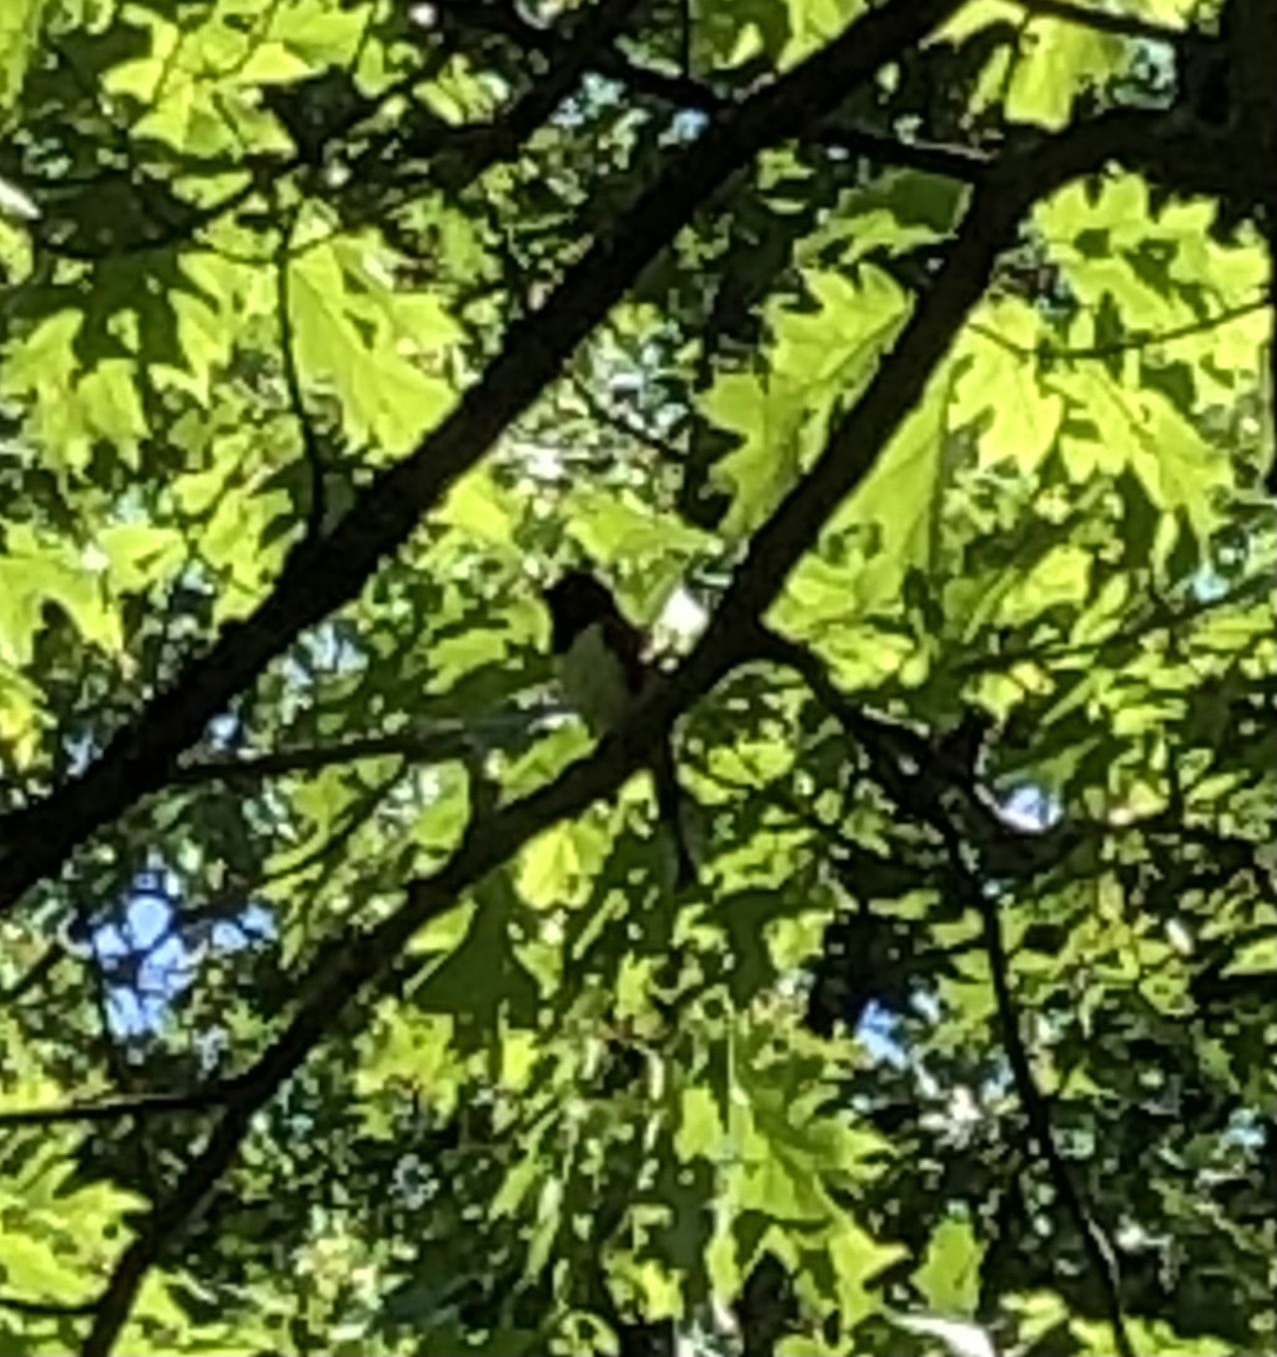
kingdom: Animalia
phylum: Chordata
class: Aves
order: Passeriformes
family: Passerellidae
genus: Pipilo
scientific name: Pipilo erythrophthalmus
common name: Eastern towhee
